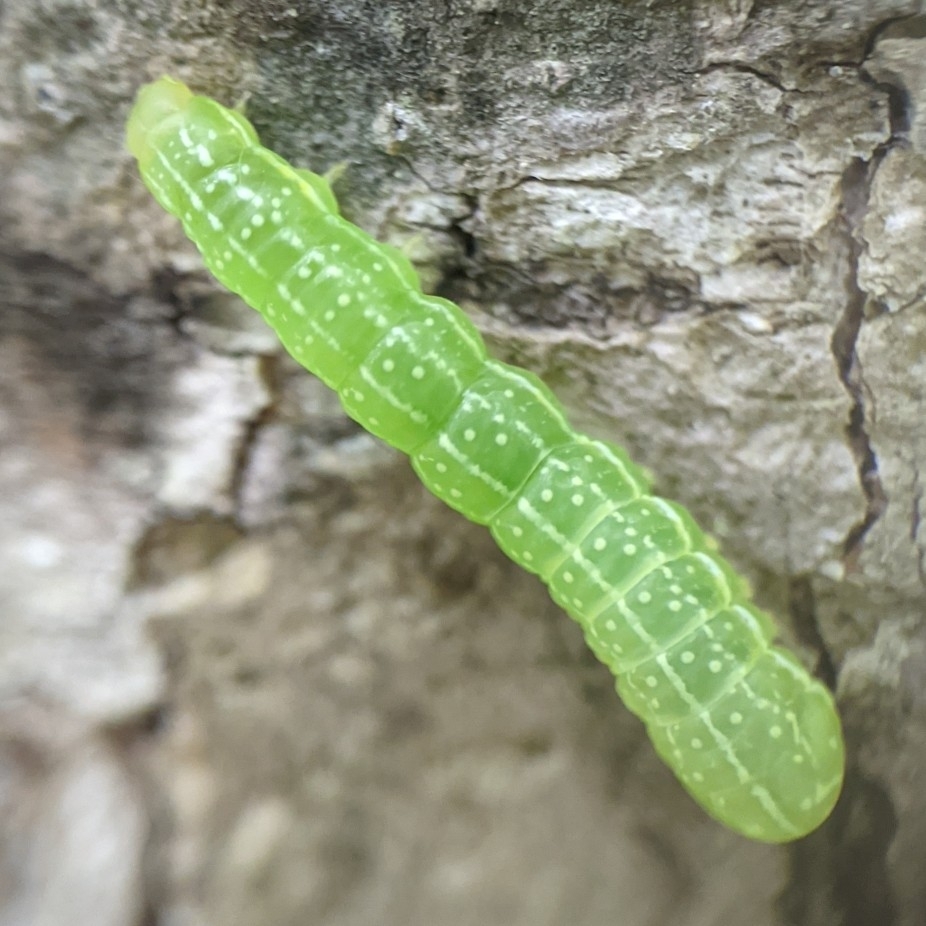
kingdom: Animalia
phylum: Arthropoda
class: Insecta
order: Lepidoptera
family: Noctuidae
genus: Amphipyra
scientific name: Amphipyra pyramidoides
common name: American copper underwing
